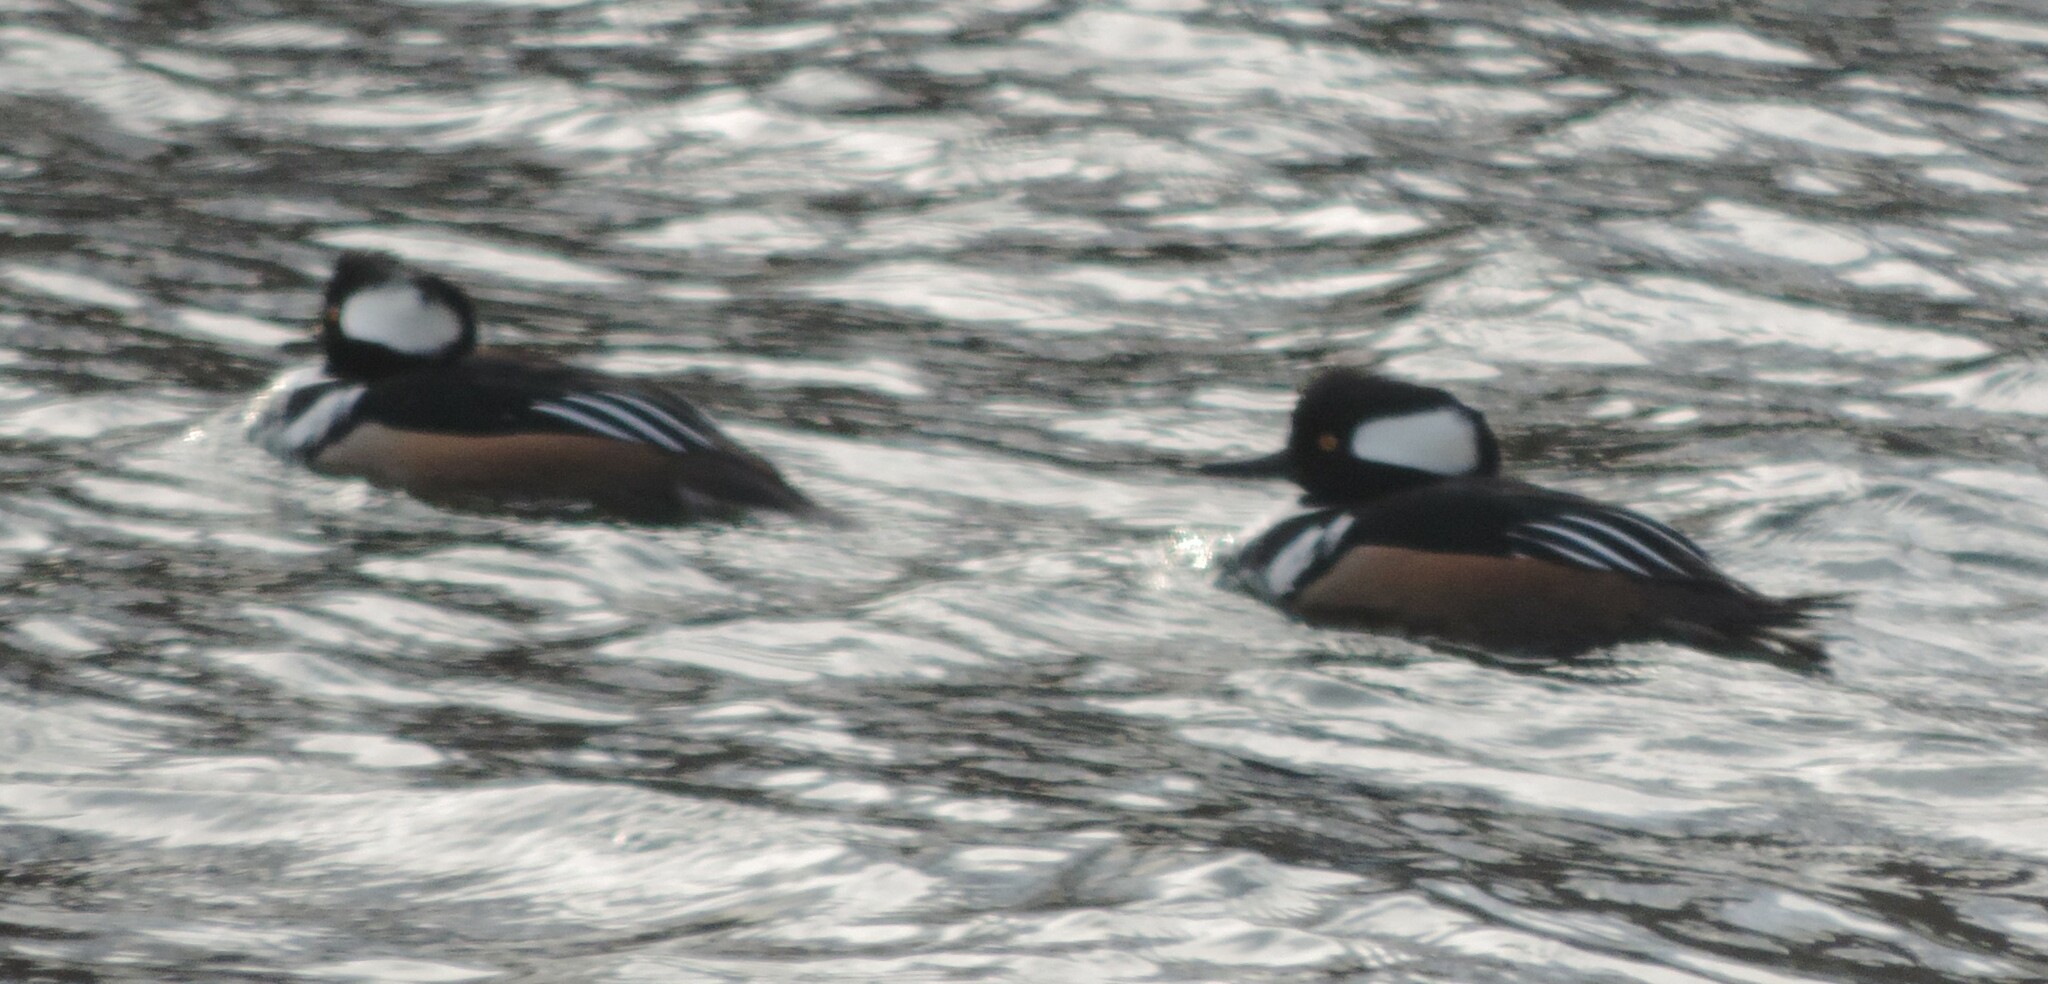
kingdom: Animalia
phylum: Chordata
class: Aves
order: Anseriformes
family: Anatidae
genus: Lophodytes
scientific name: Lophodytes cucullatus
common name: Hooded merganser
